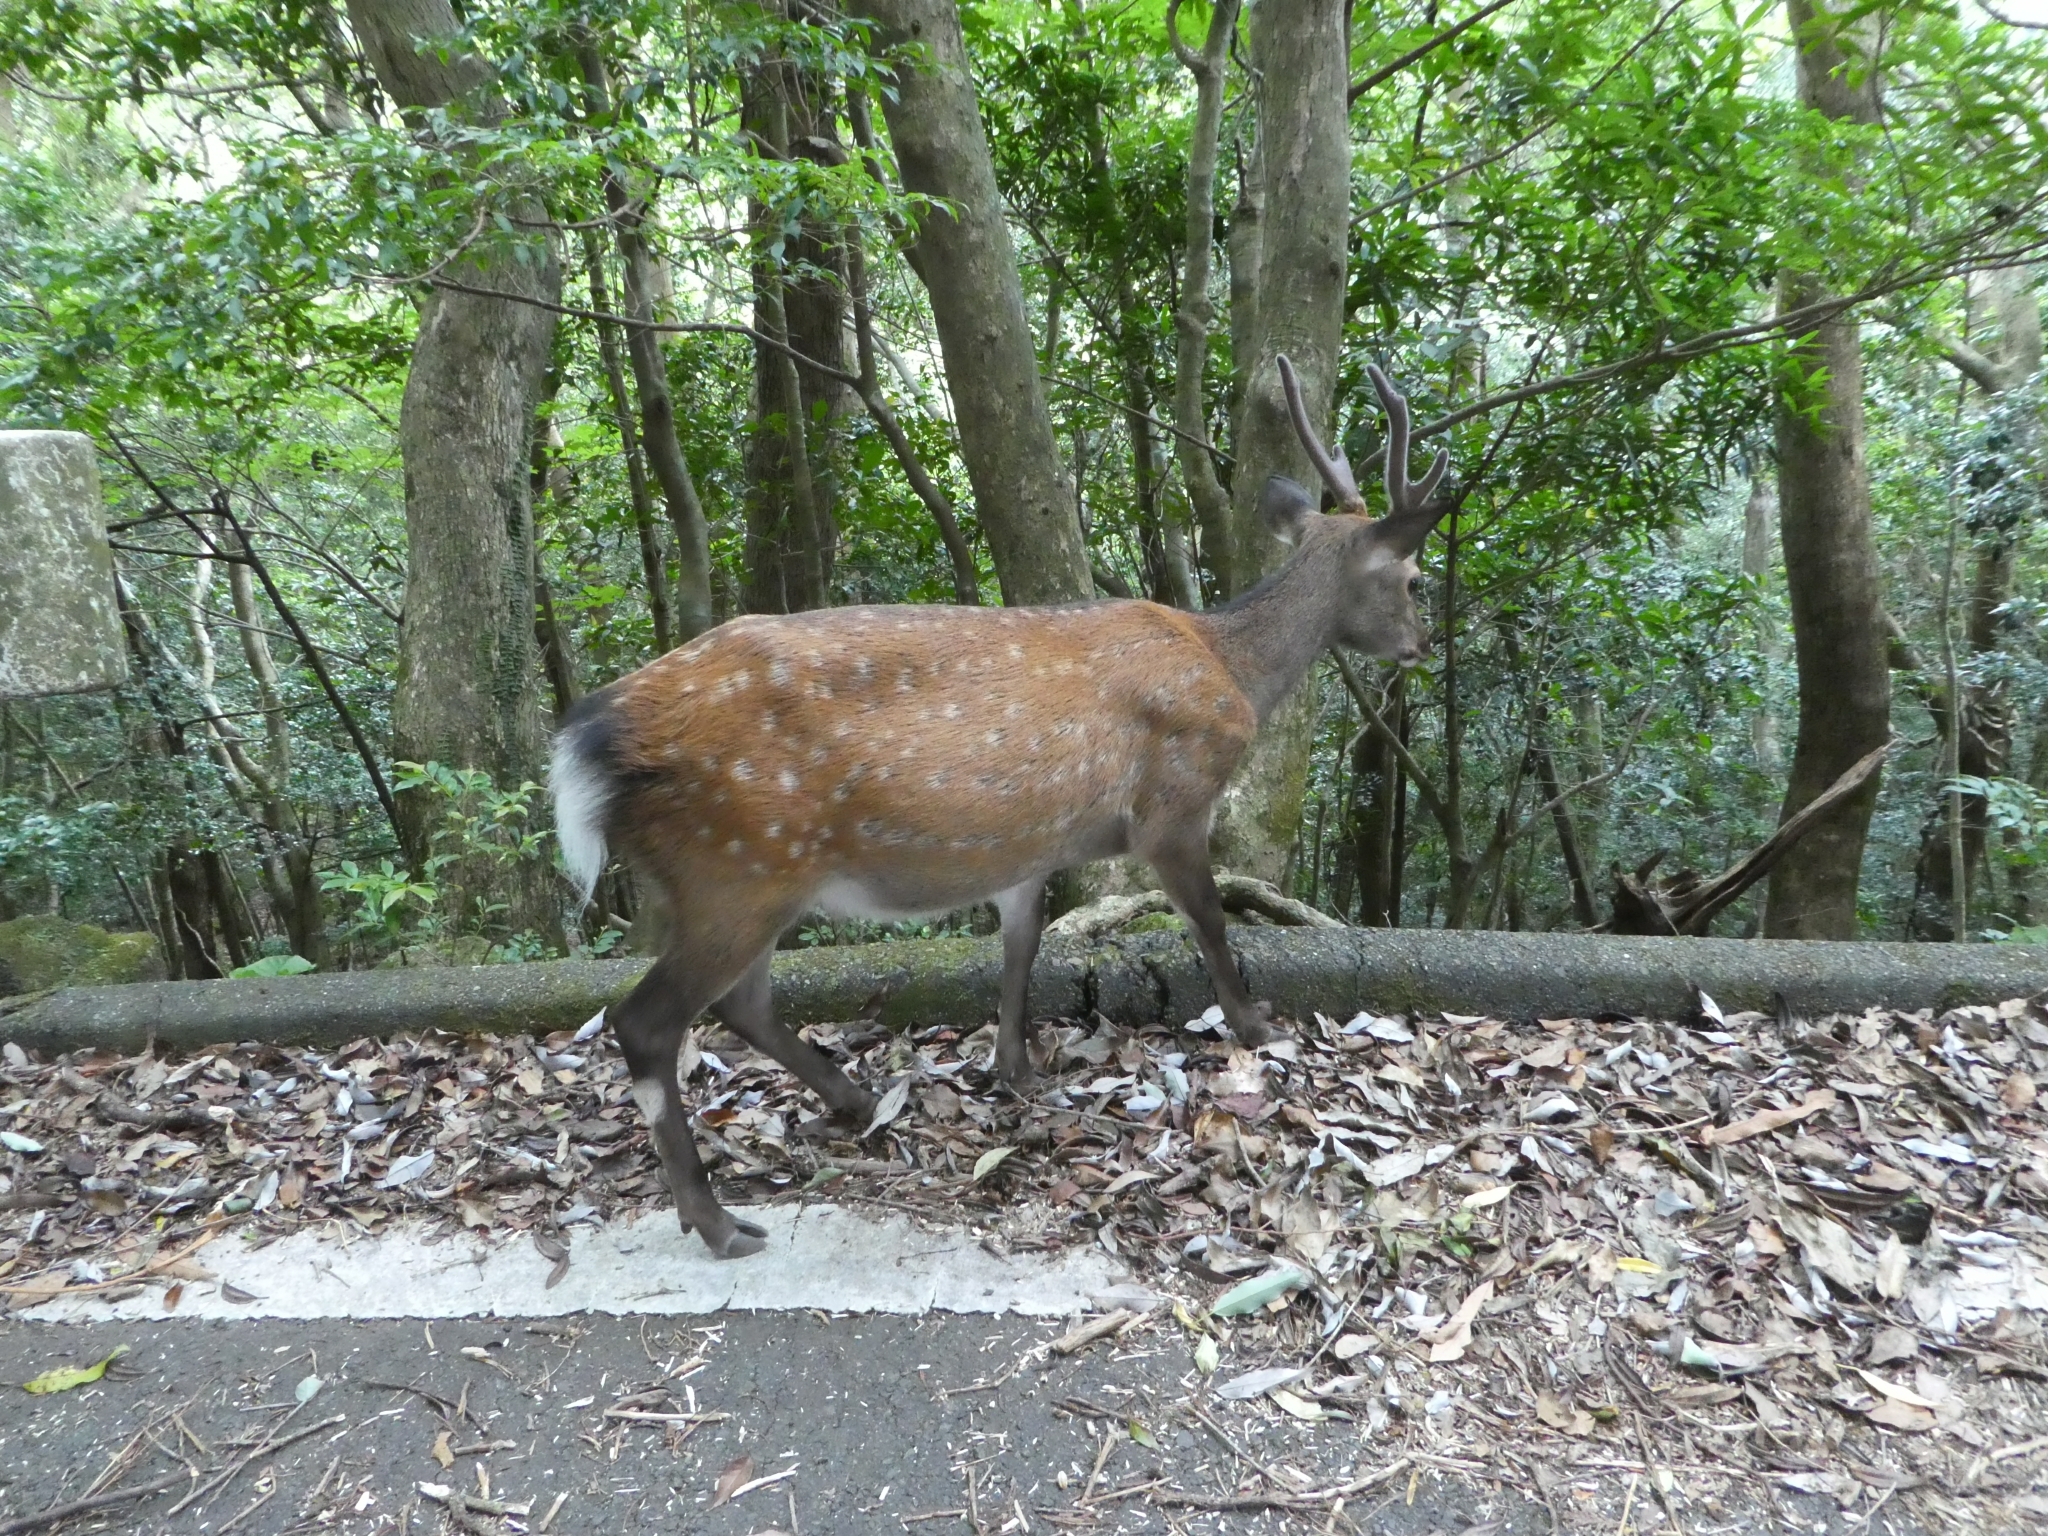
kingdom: Animalia
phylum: Chordata
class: Mammalia
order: Artiodactyla
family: Cervidae
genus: Cervus
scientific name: Cervus nippon
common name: Sika deer
